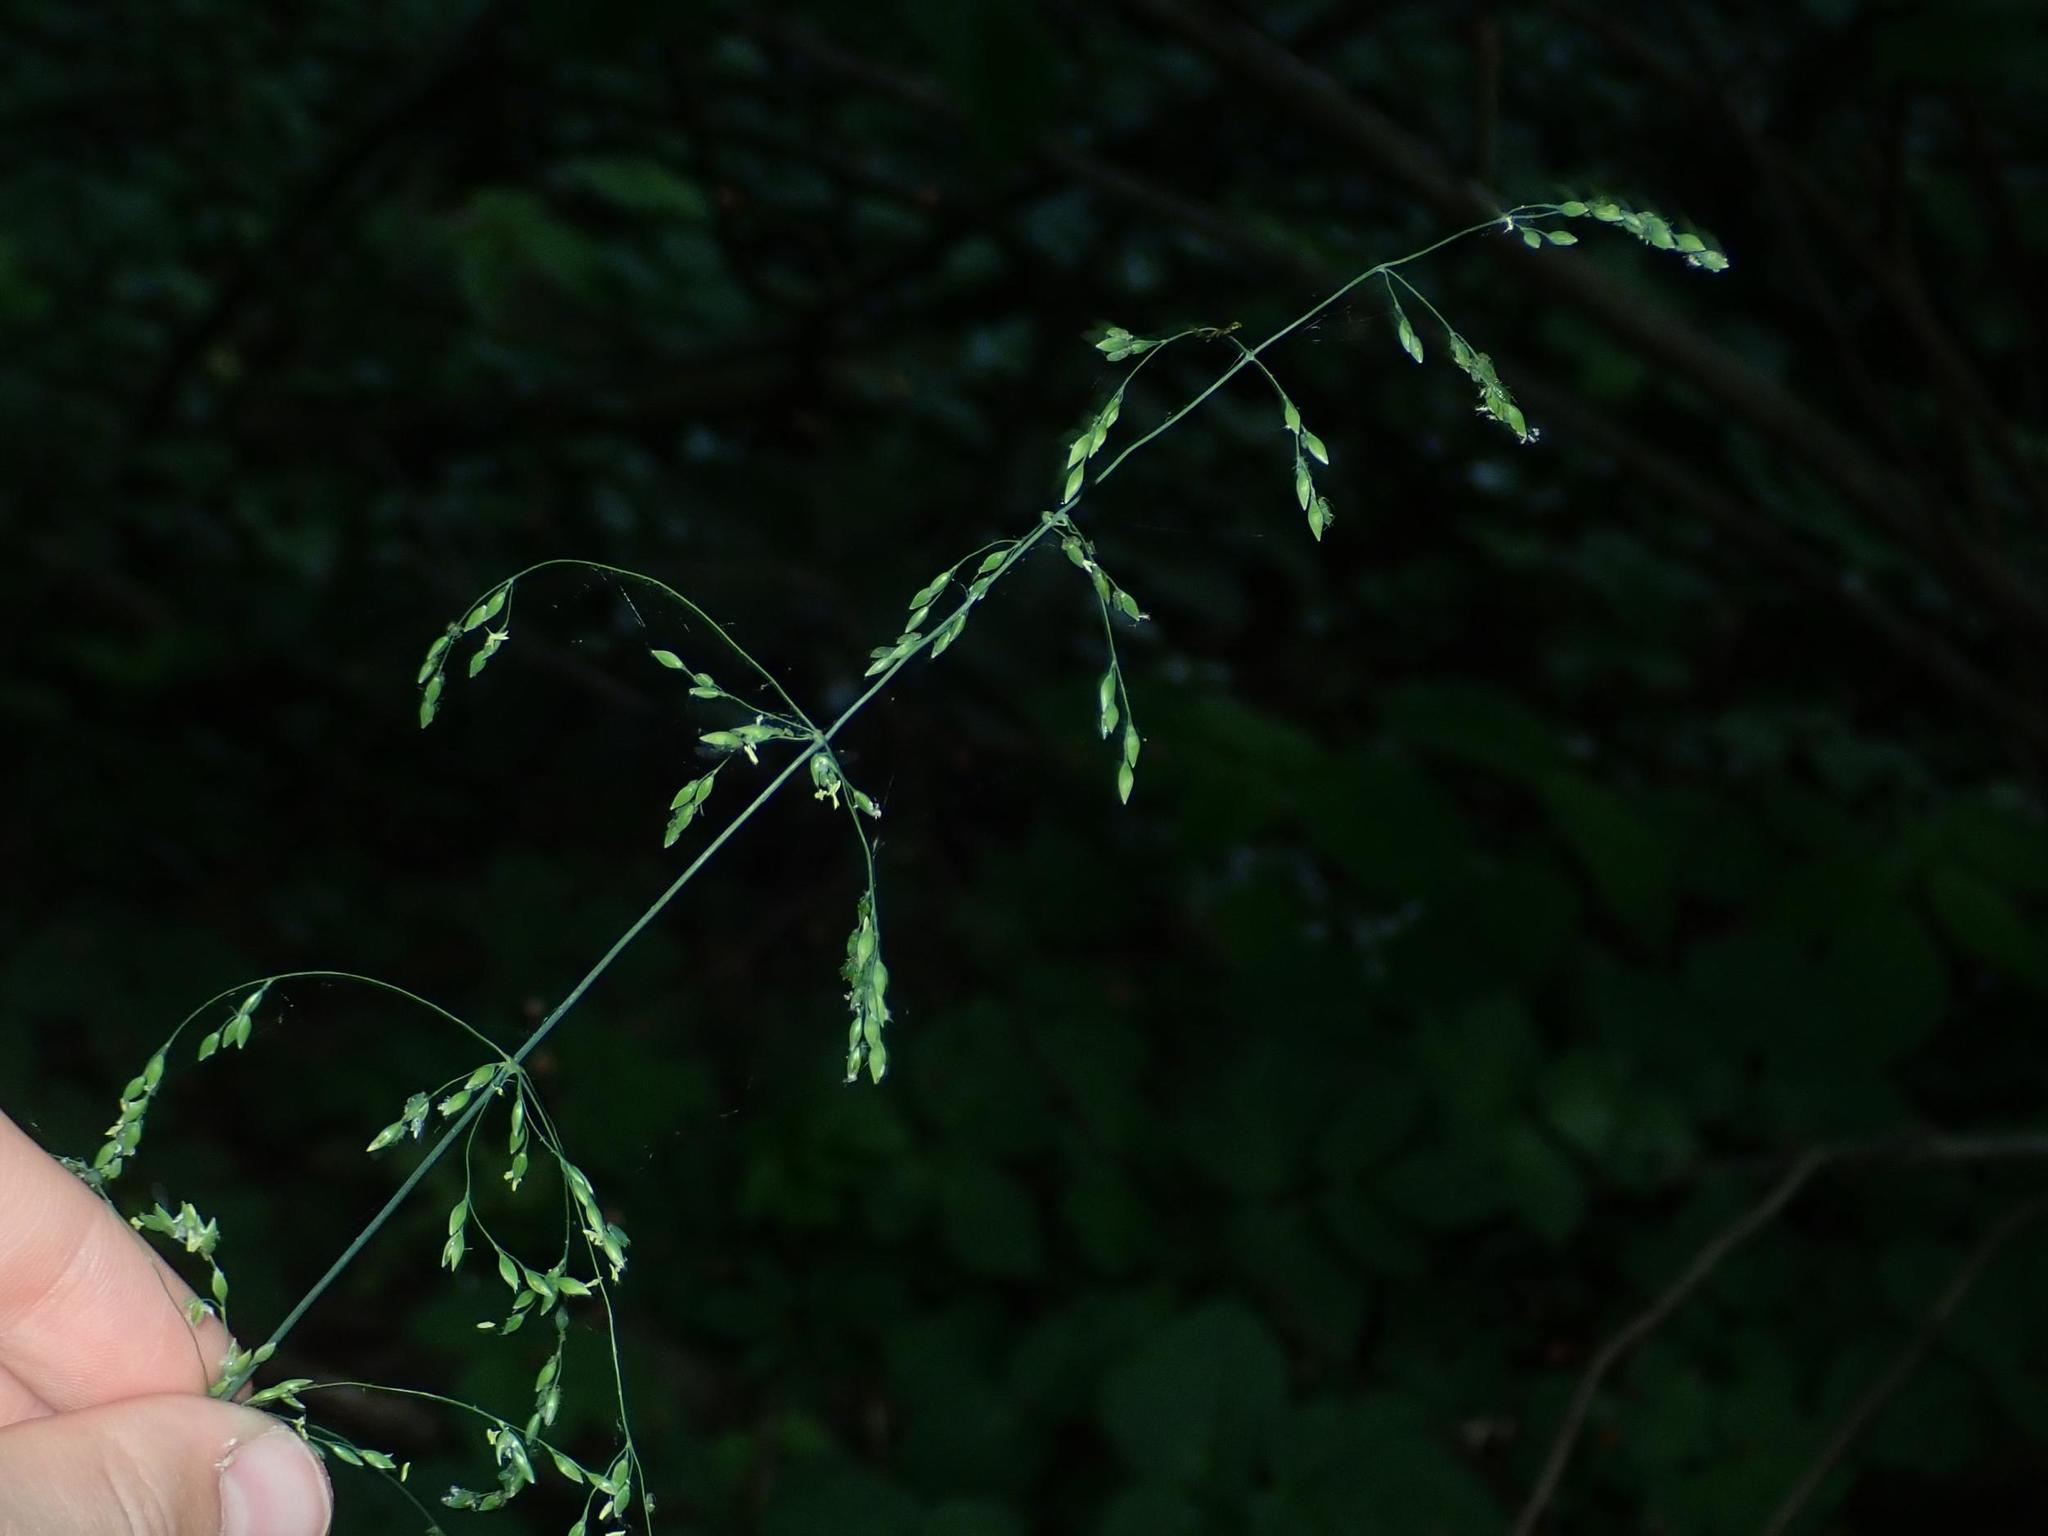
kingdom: Plantae
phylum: Tracheophyta
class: Liliopsida
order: Poales
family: Poaceae
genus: Milium
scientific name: Milium effusum
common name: Wood millet
